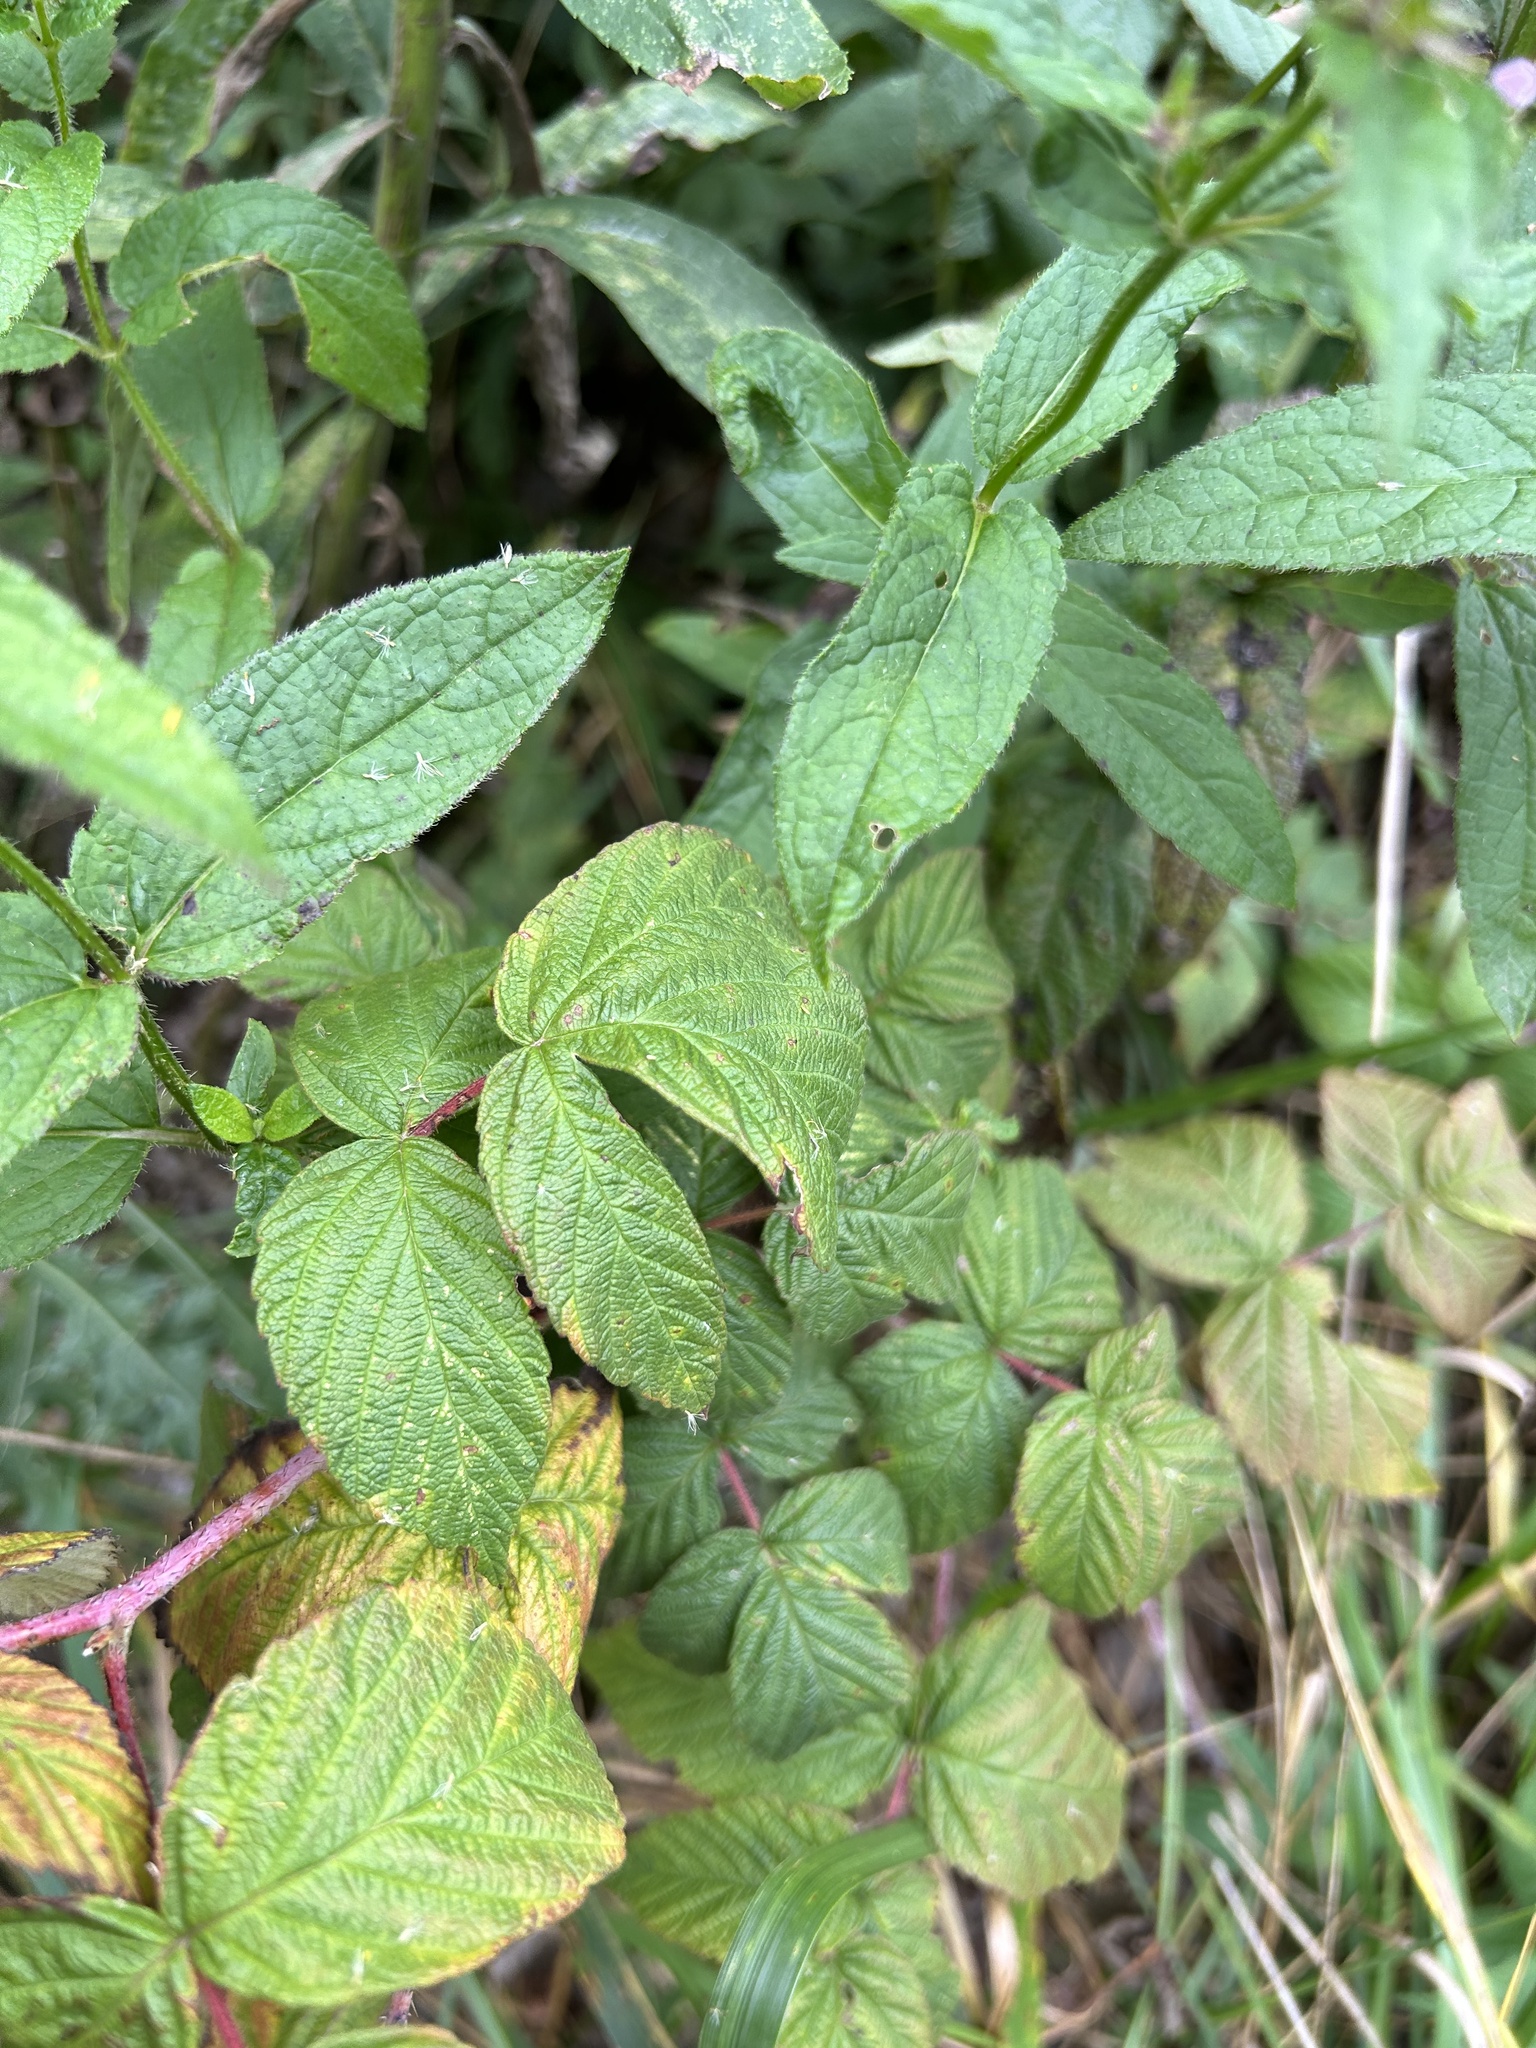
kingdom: Plantae
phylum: Tracheophyta
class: Magnoliopsida
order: Lamiales
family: Lamiaceae
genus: Stachys
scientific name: Stachys hispida
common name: Hispid hedge-nettle
